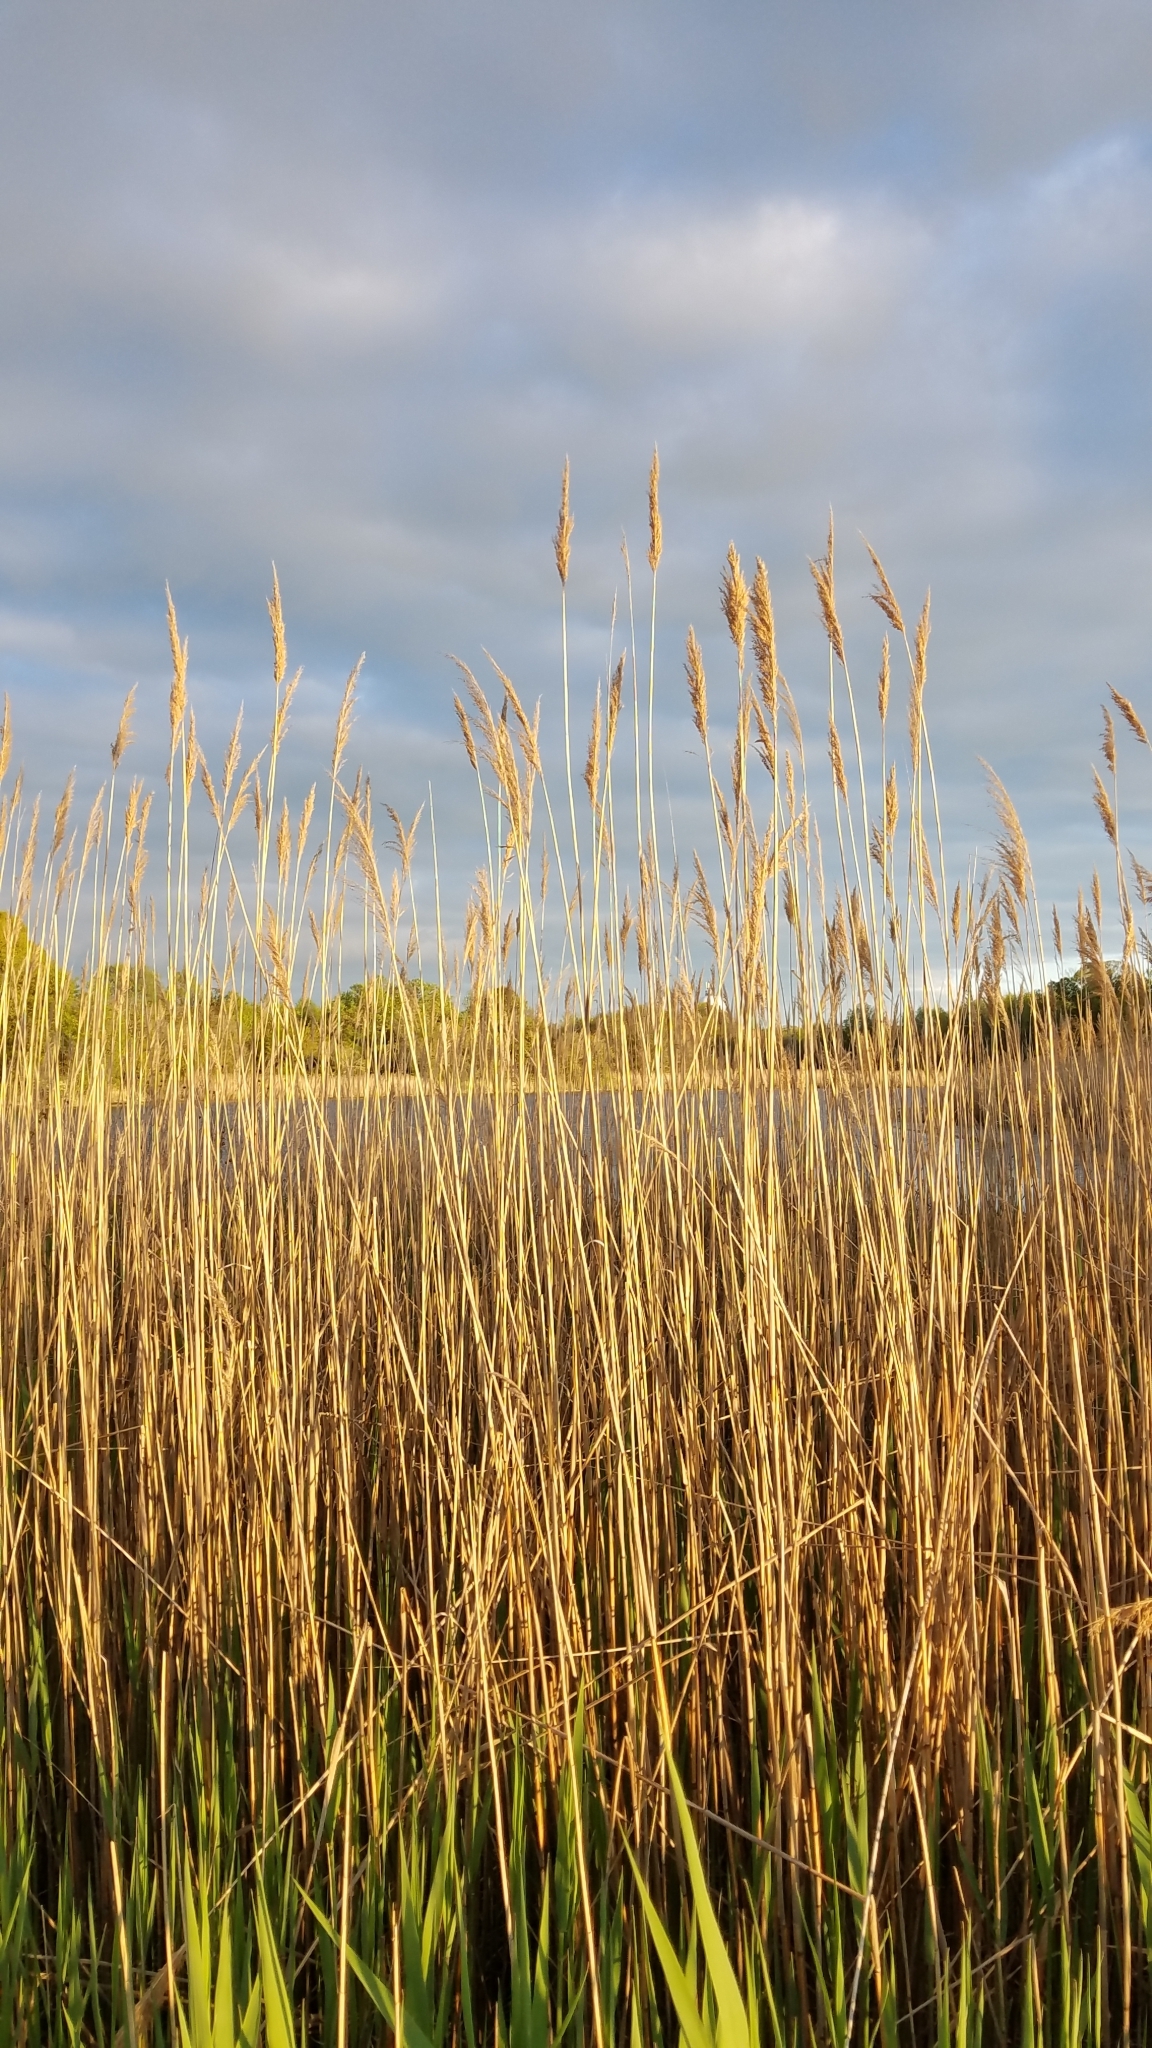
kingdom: Plantae
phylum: Tracheophyta
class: Liliopsida
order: Poales
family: Poaceae
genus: Phragmites
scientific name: Phragmites australis
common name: Common reed
